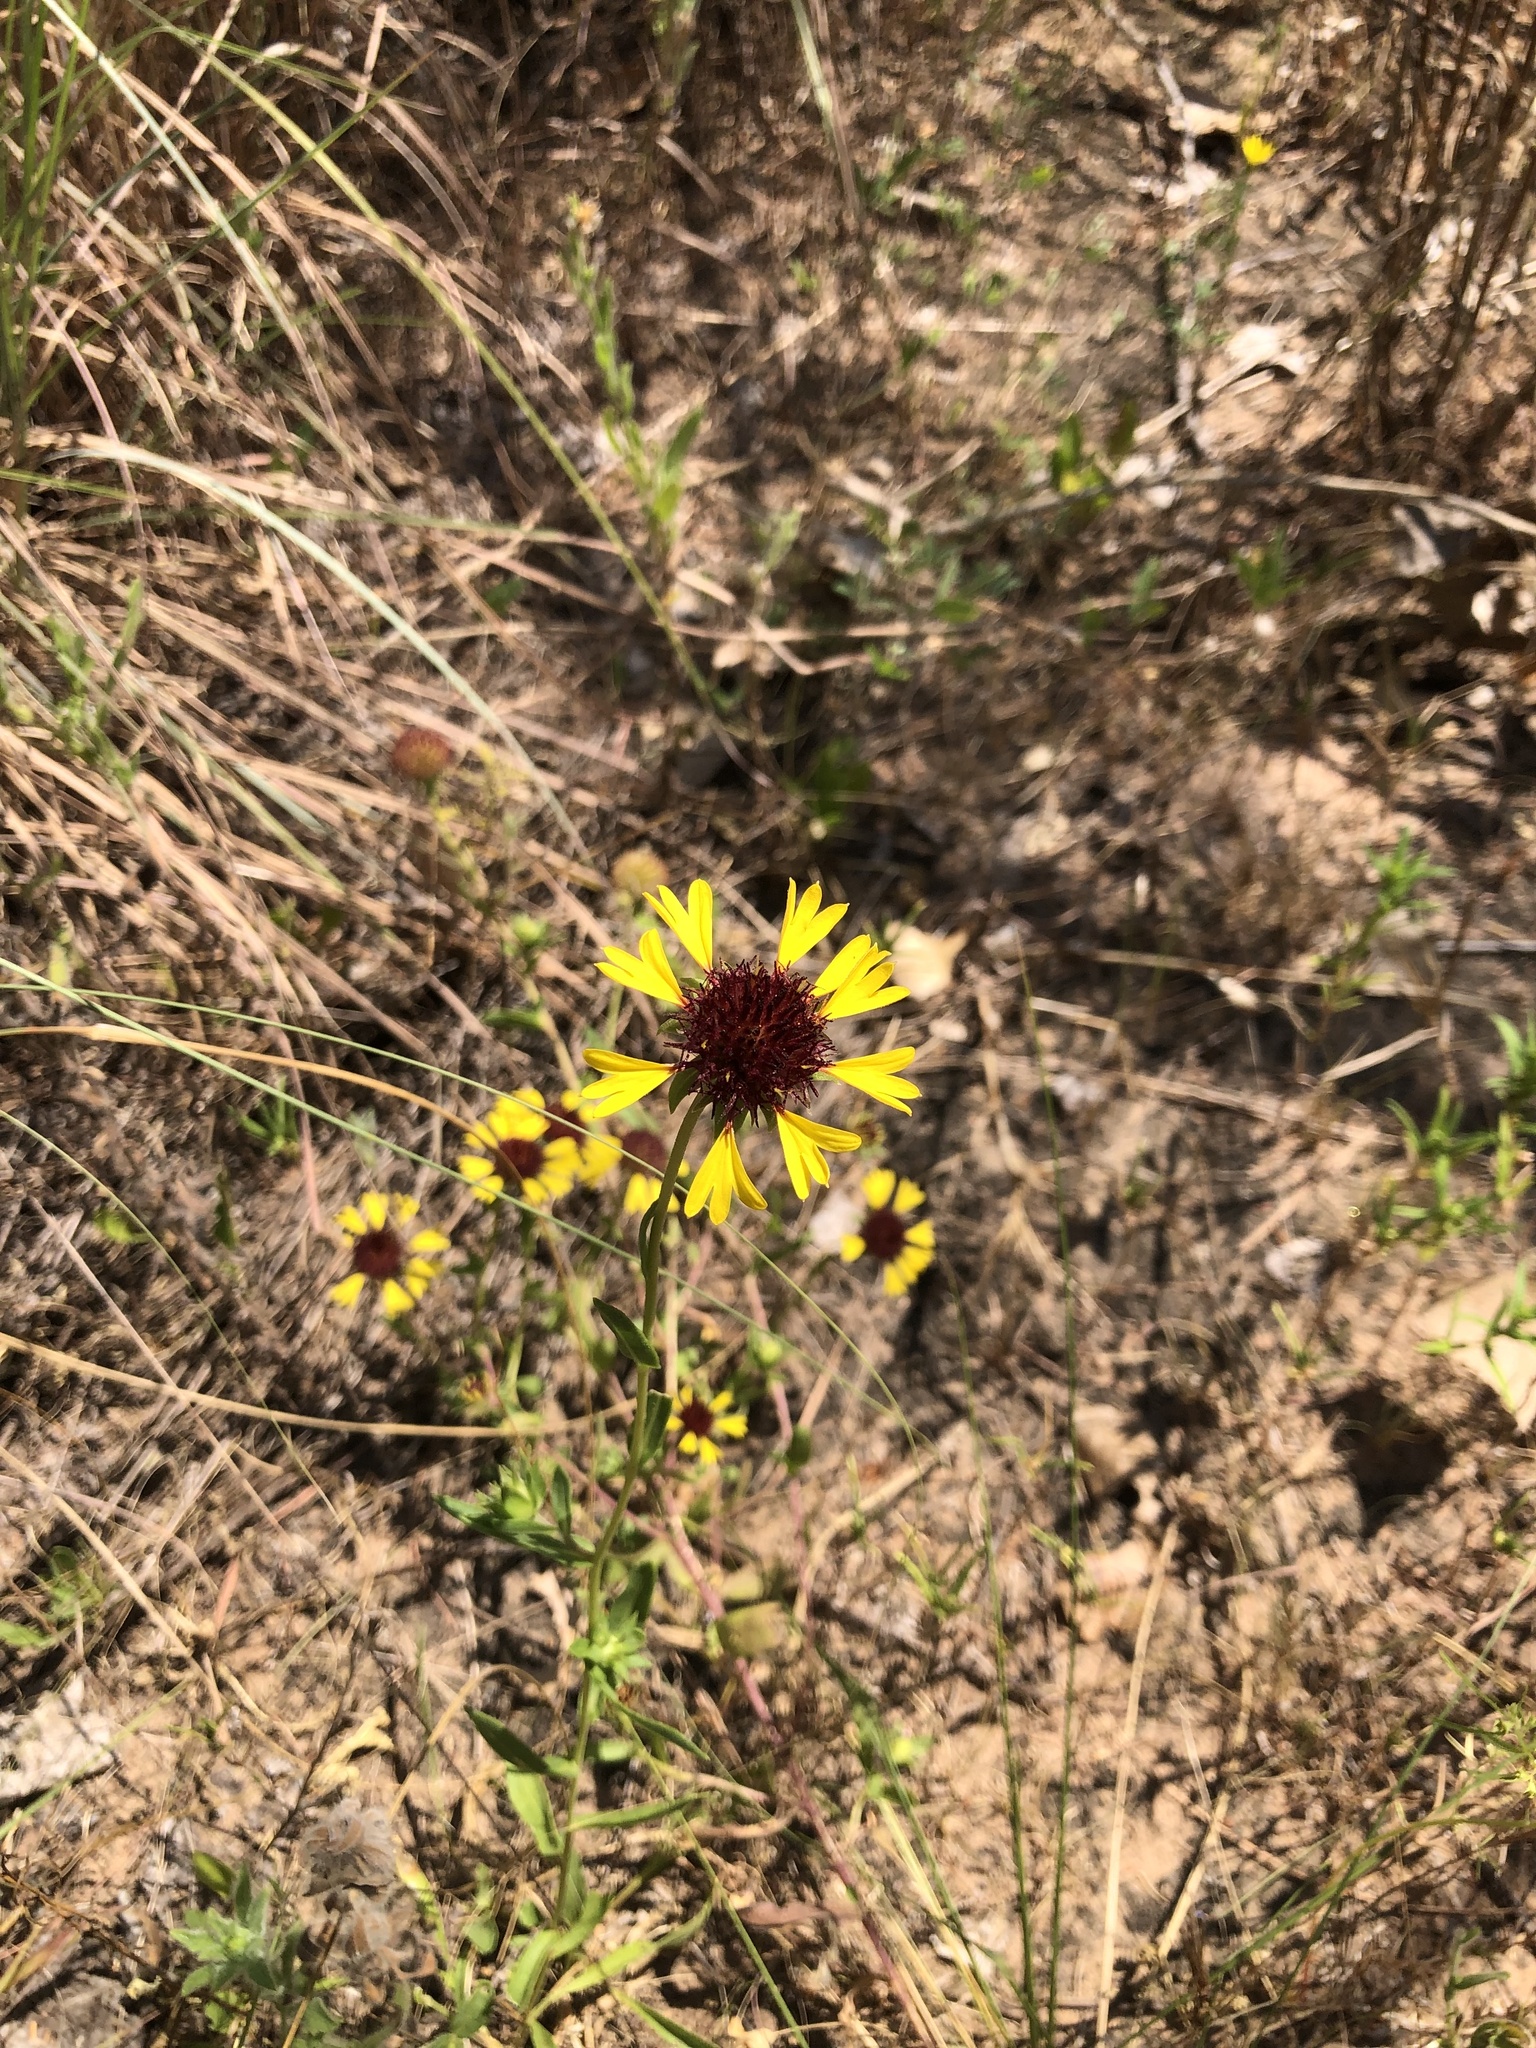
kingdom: Plantae
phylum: Tracheophyta
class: Magnoliopsida
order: Asterales
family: Asteraceae
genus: Gaillardia
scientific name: Gaillardia aestivalis
